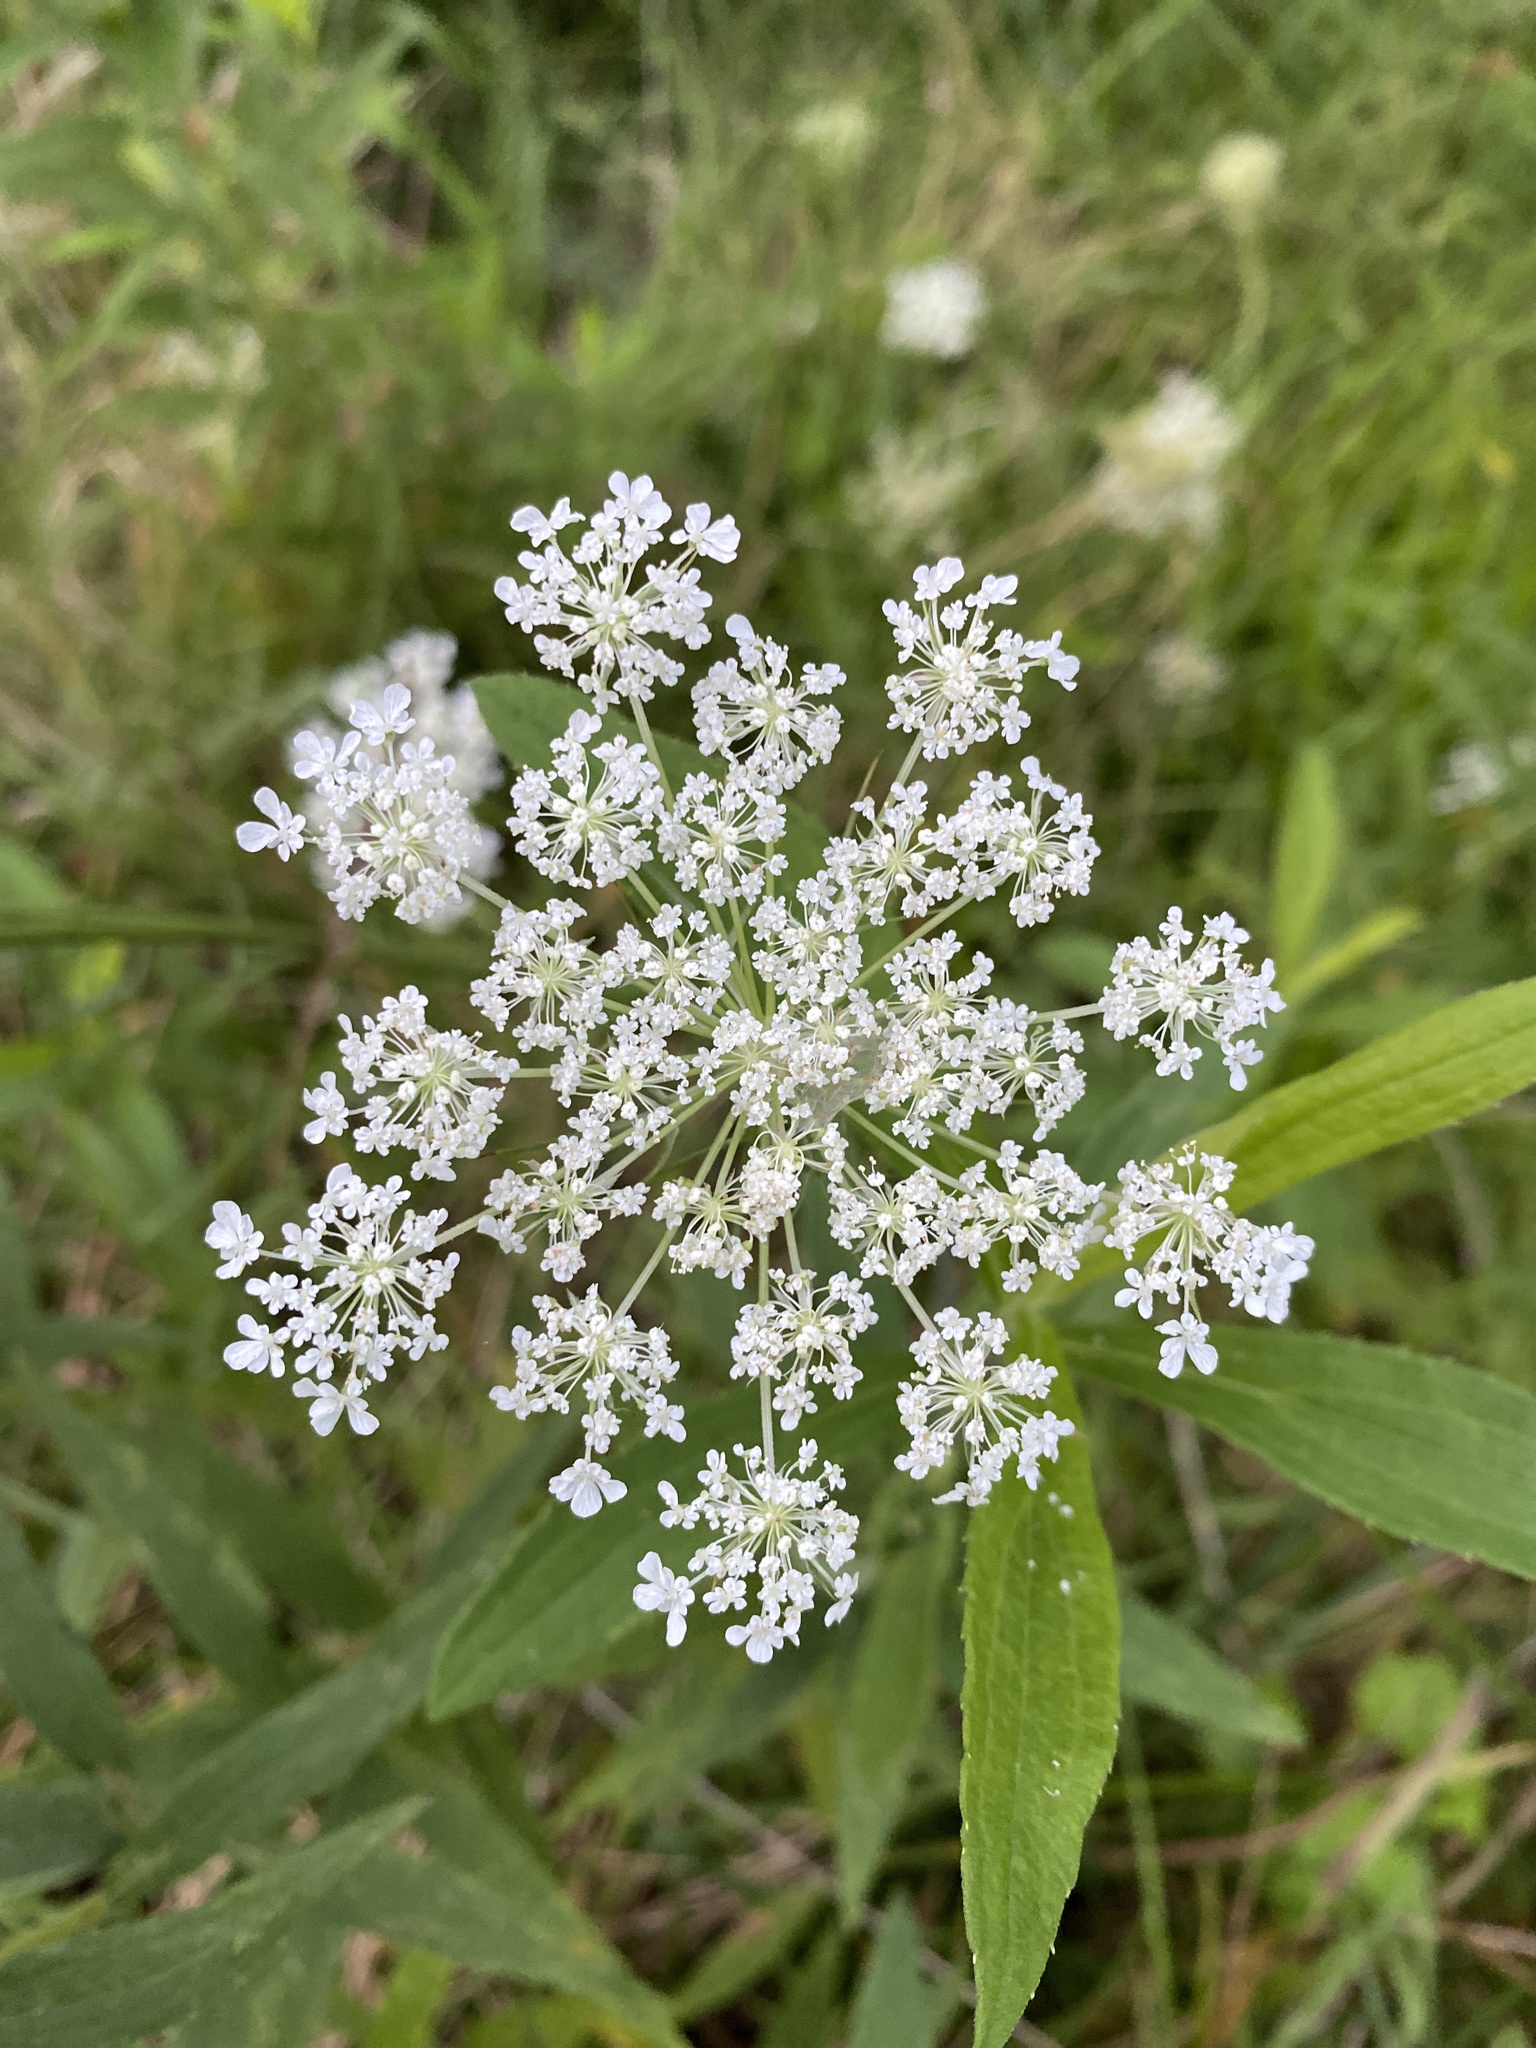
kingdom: Plantae
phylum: Tracheophyta
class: Magnoliopsida
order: Apiales
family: Apiaceae
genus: Daucus
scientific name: Daucus carota
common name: Wild carrot
